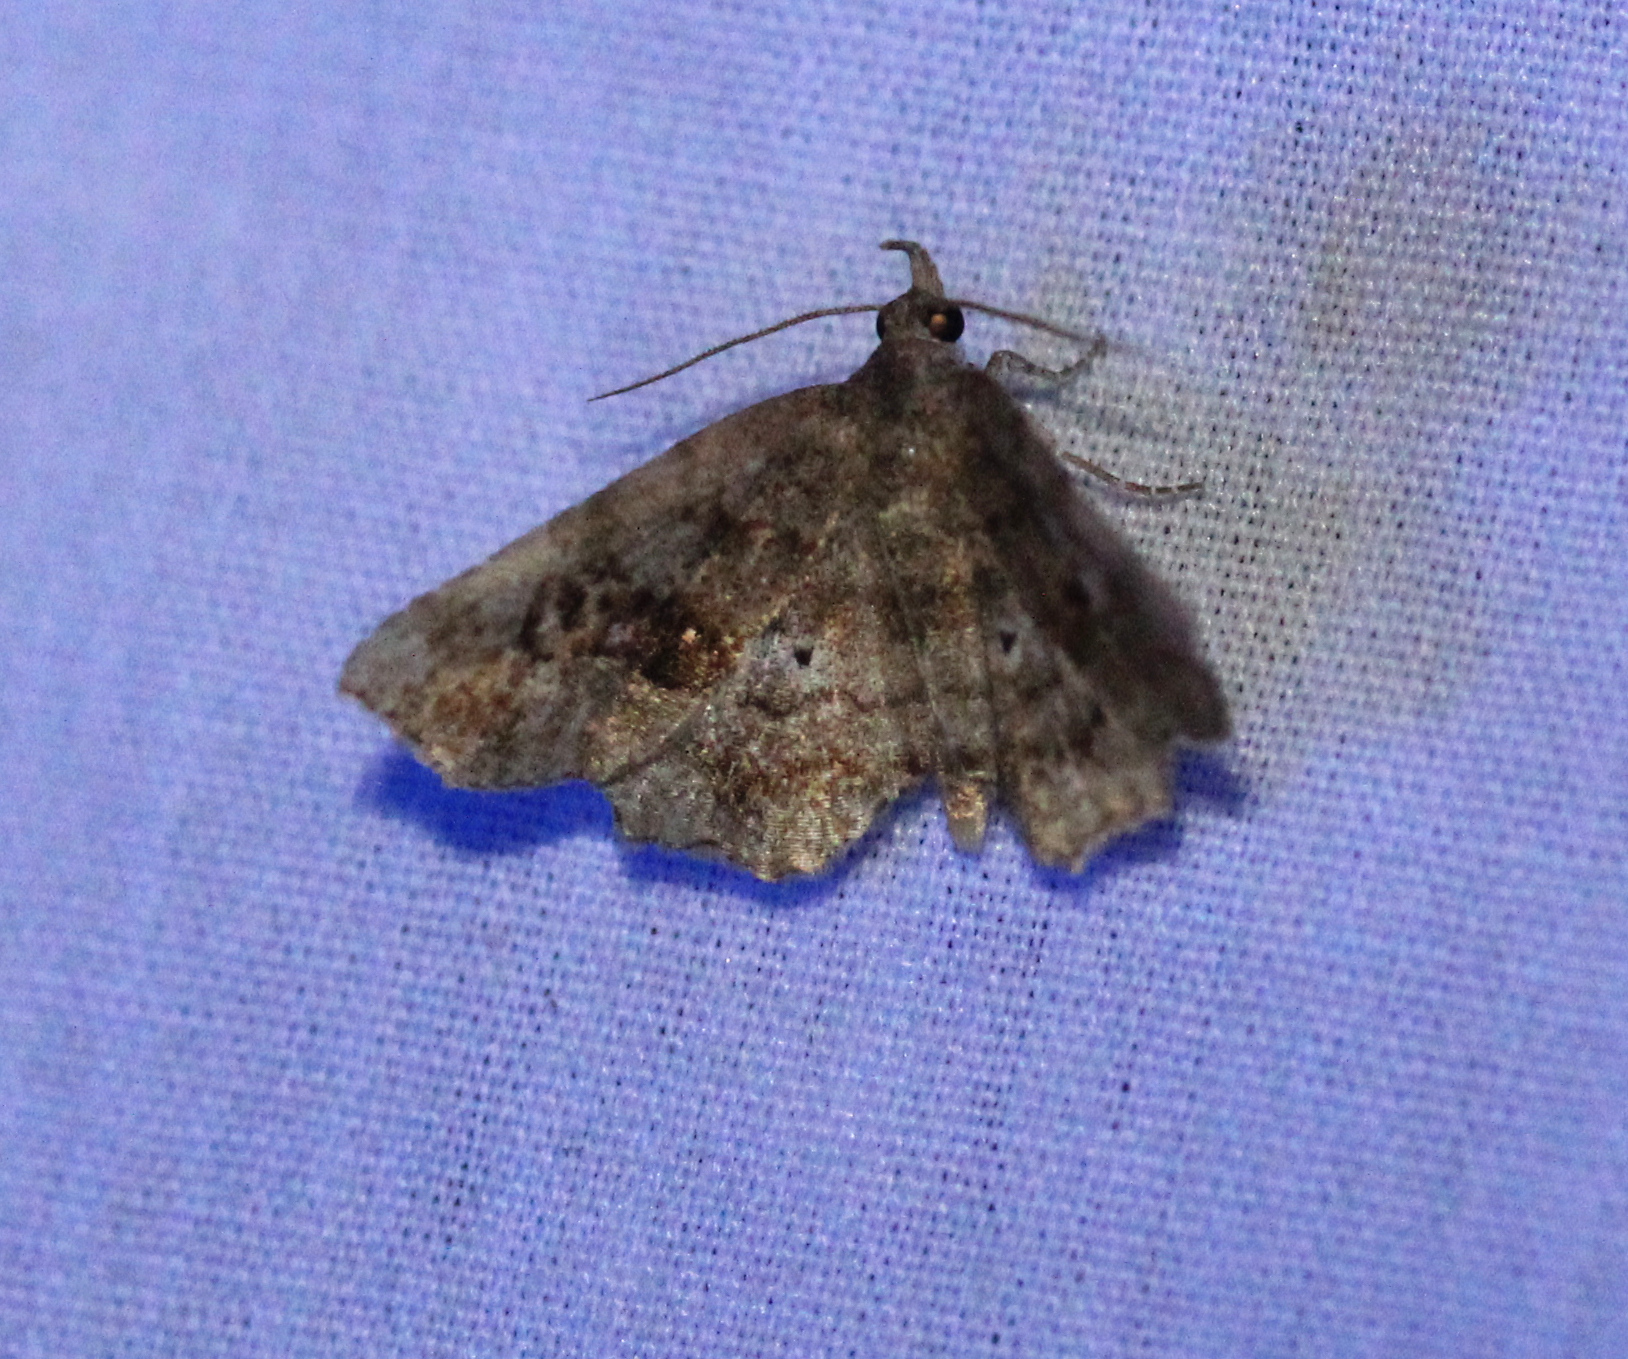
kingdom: Animalia
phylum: Arthropoda
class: Insecta
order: Lepidoptera
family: Erebidae
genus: Pangrapta
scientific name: Pangrapta decoralis
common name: Decorated owlet
